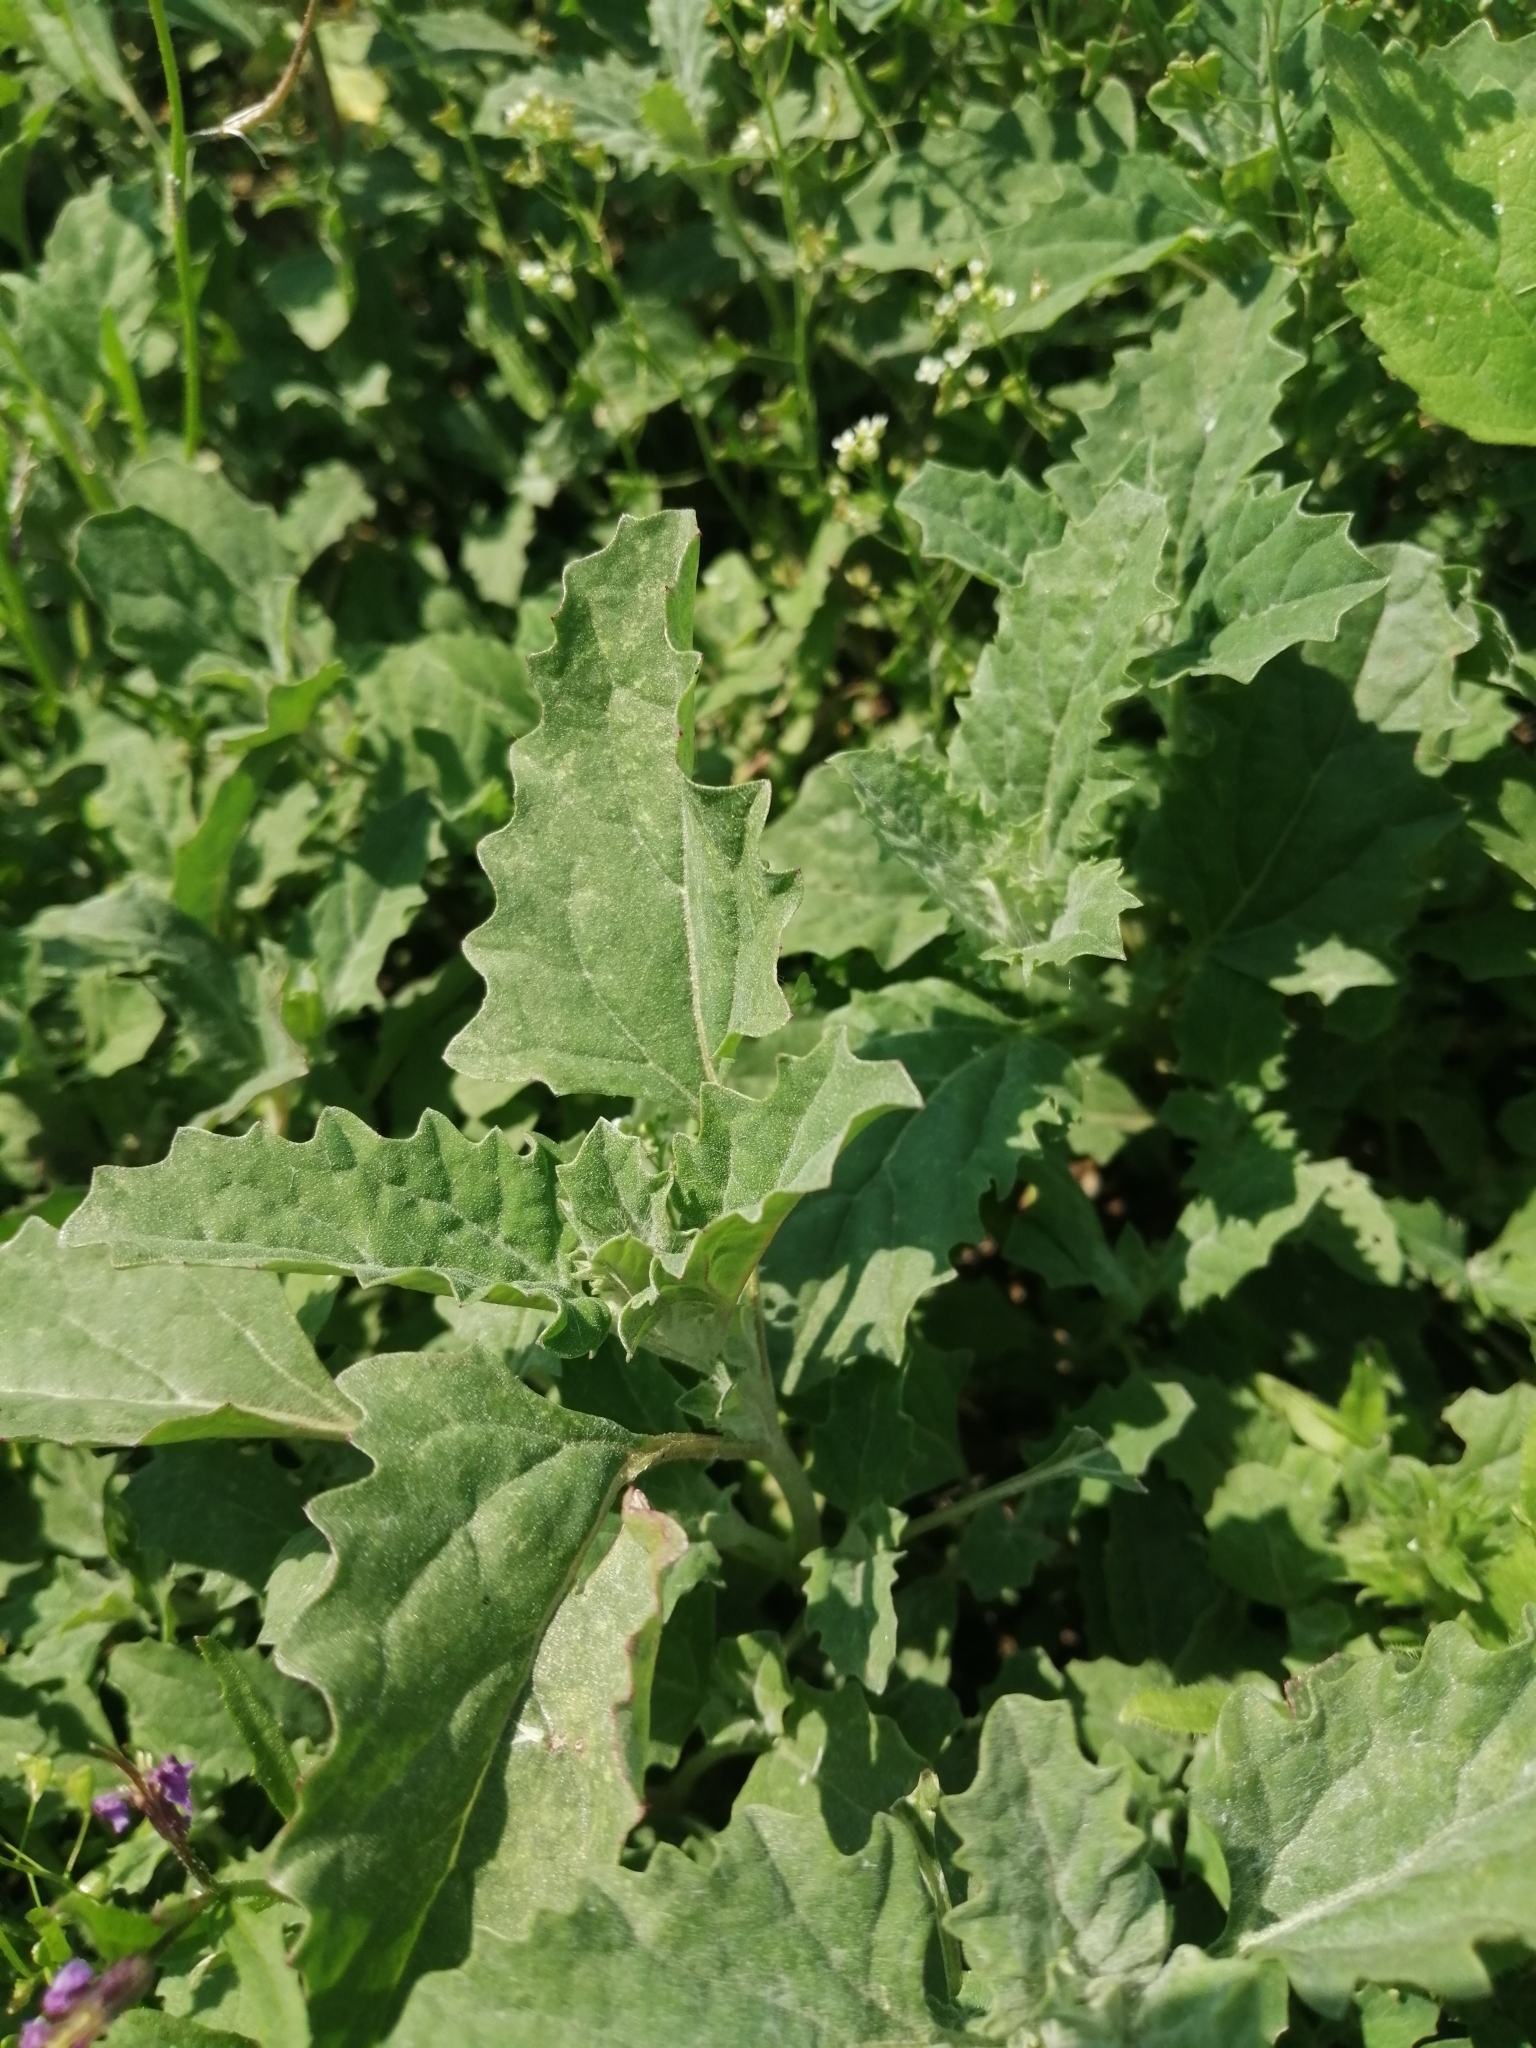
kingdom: Plantae
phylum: Tracheophyta
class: Magnoliopsida
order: Caryophyllales
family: Amaranthaceae
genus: Atriplex
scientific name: Atriplex tatarica
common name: Tatarian orache
